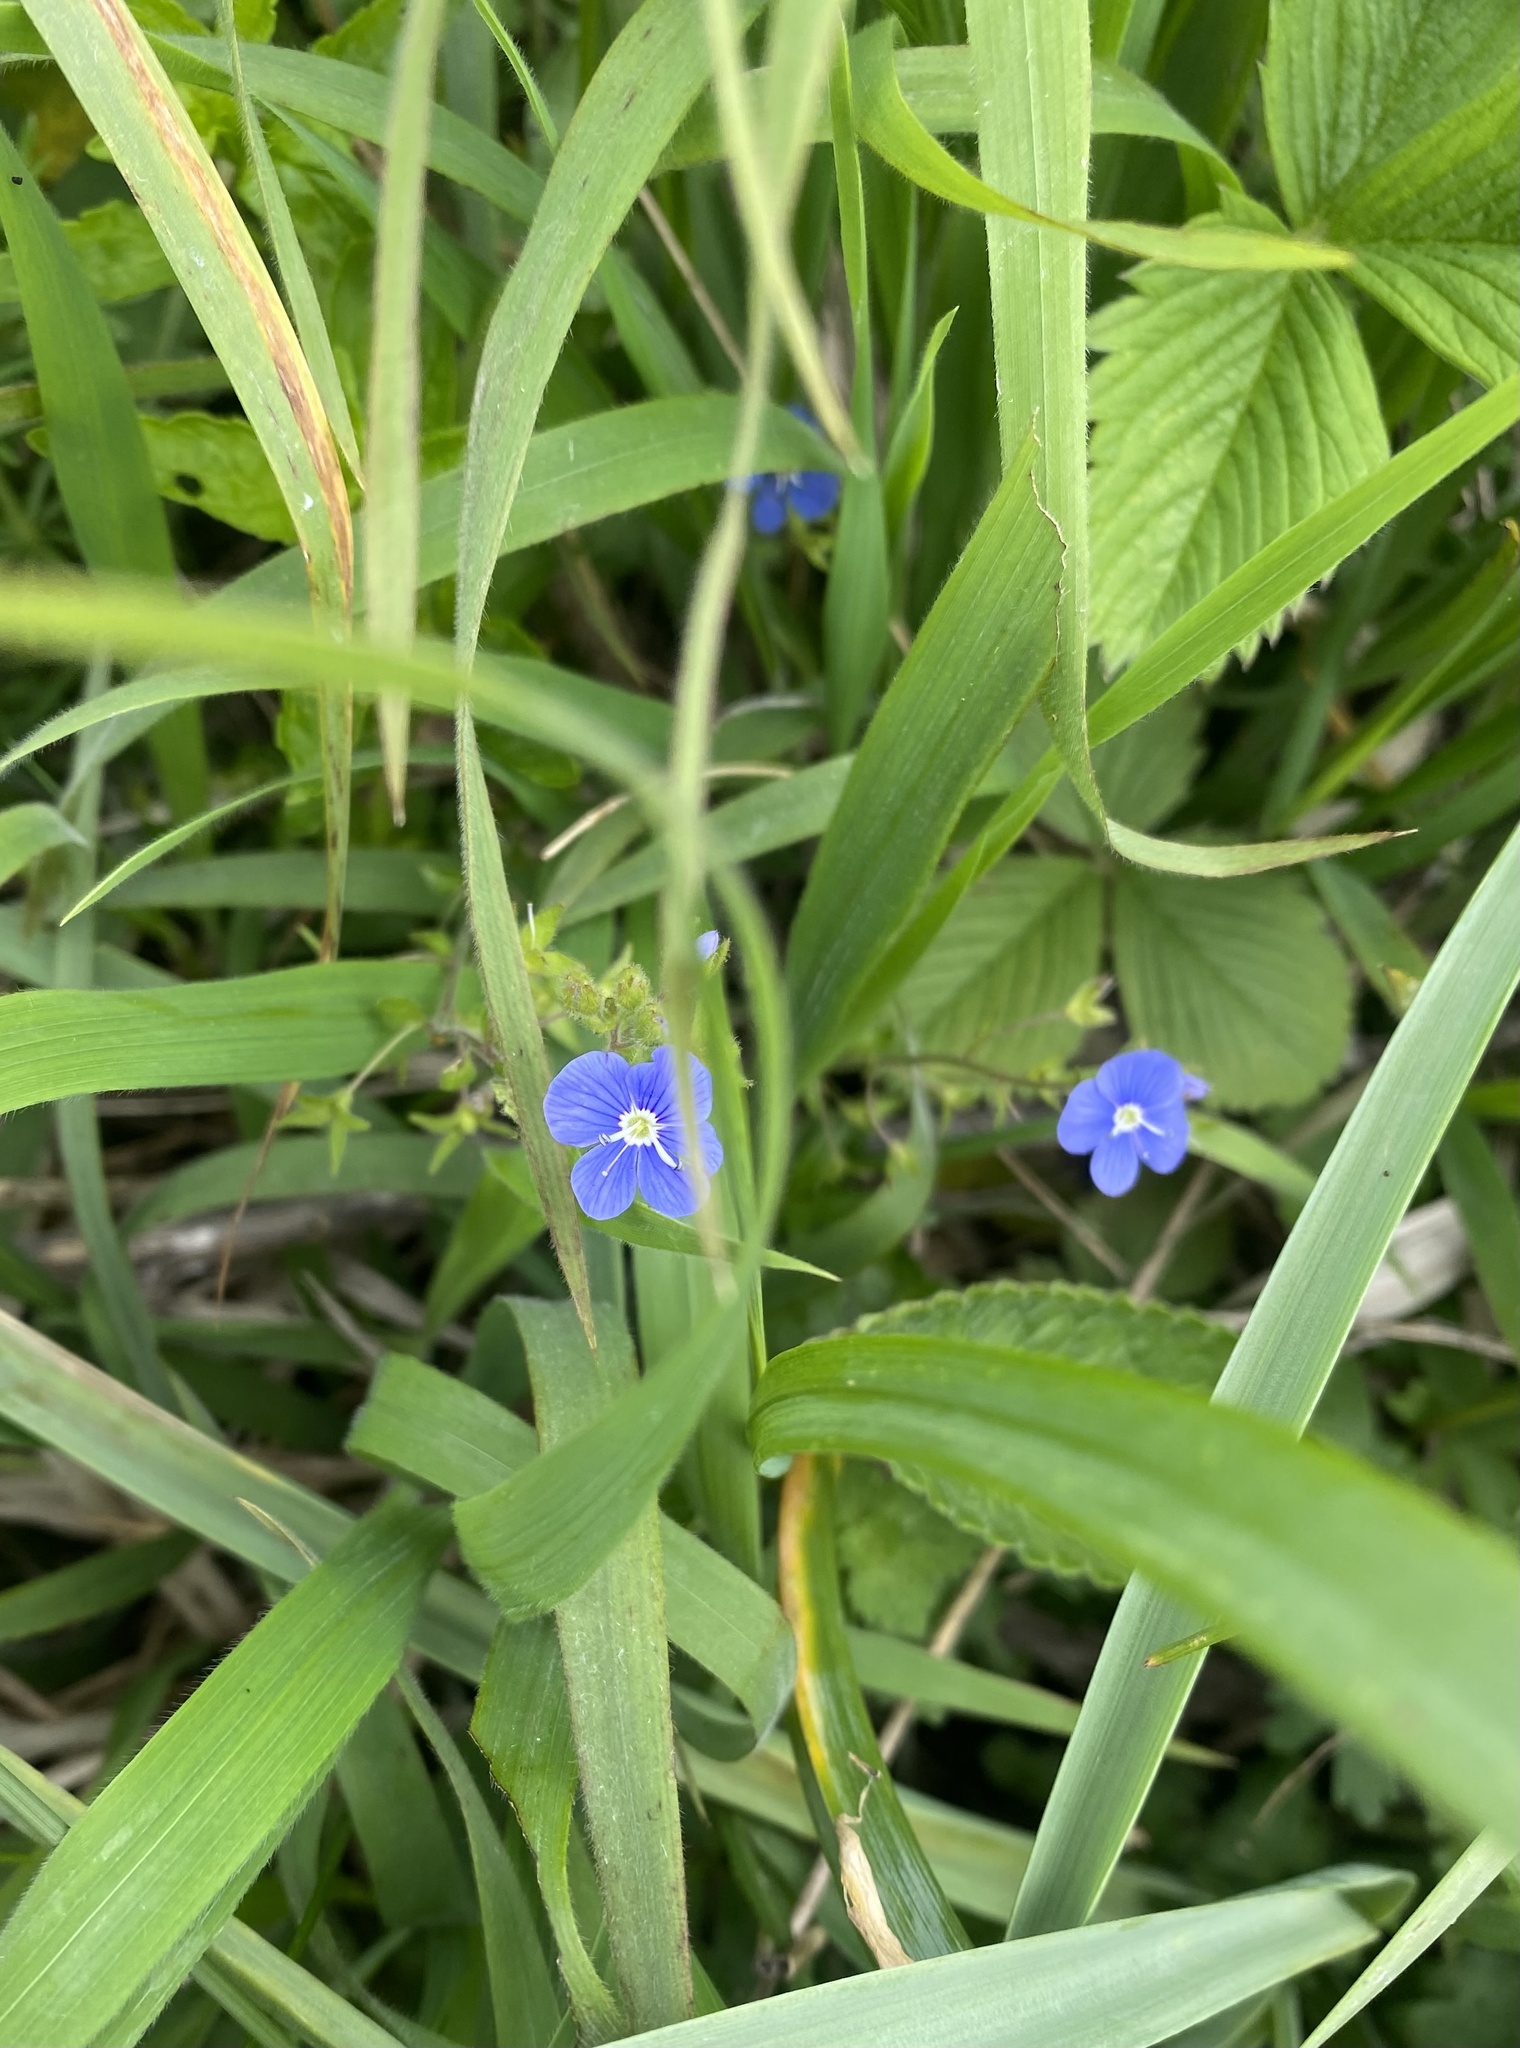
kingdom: Plantae
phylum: Tracheophyta
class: Magnoliopsida
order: Lamiales
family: Plantaginaceae
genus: Veronica
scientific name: Veronica
